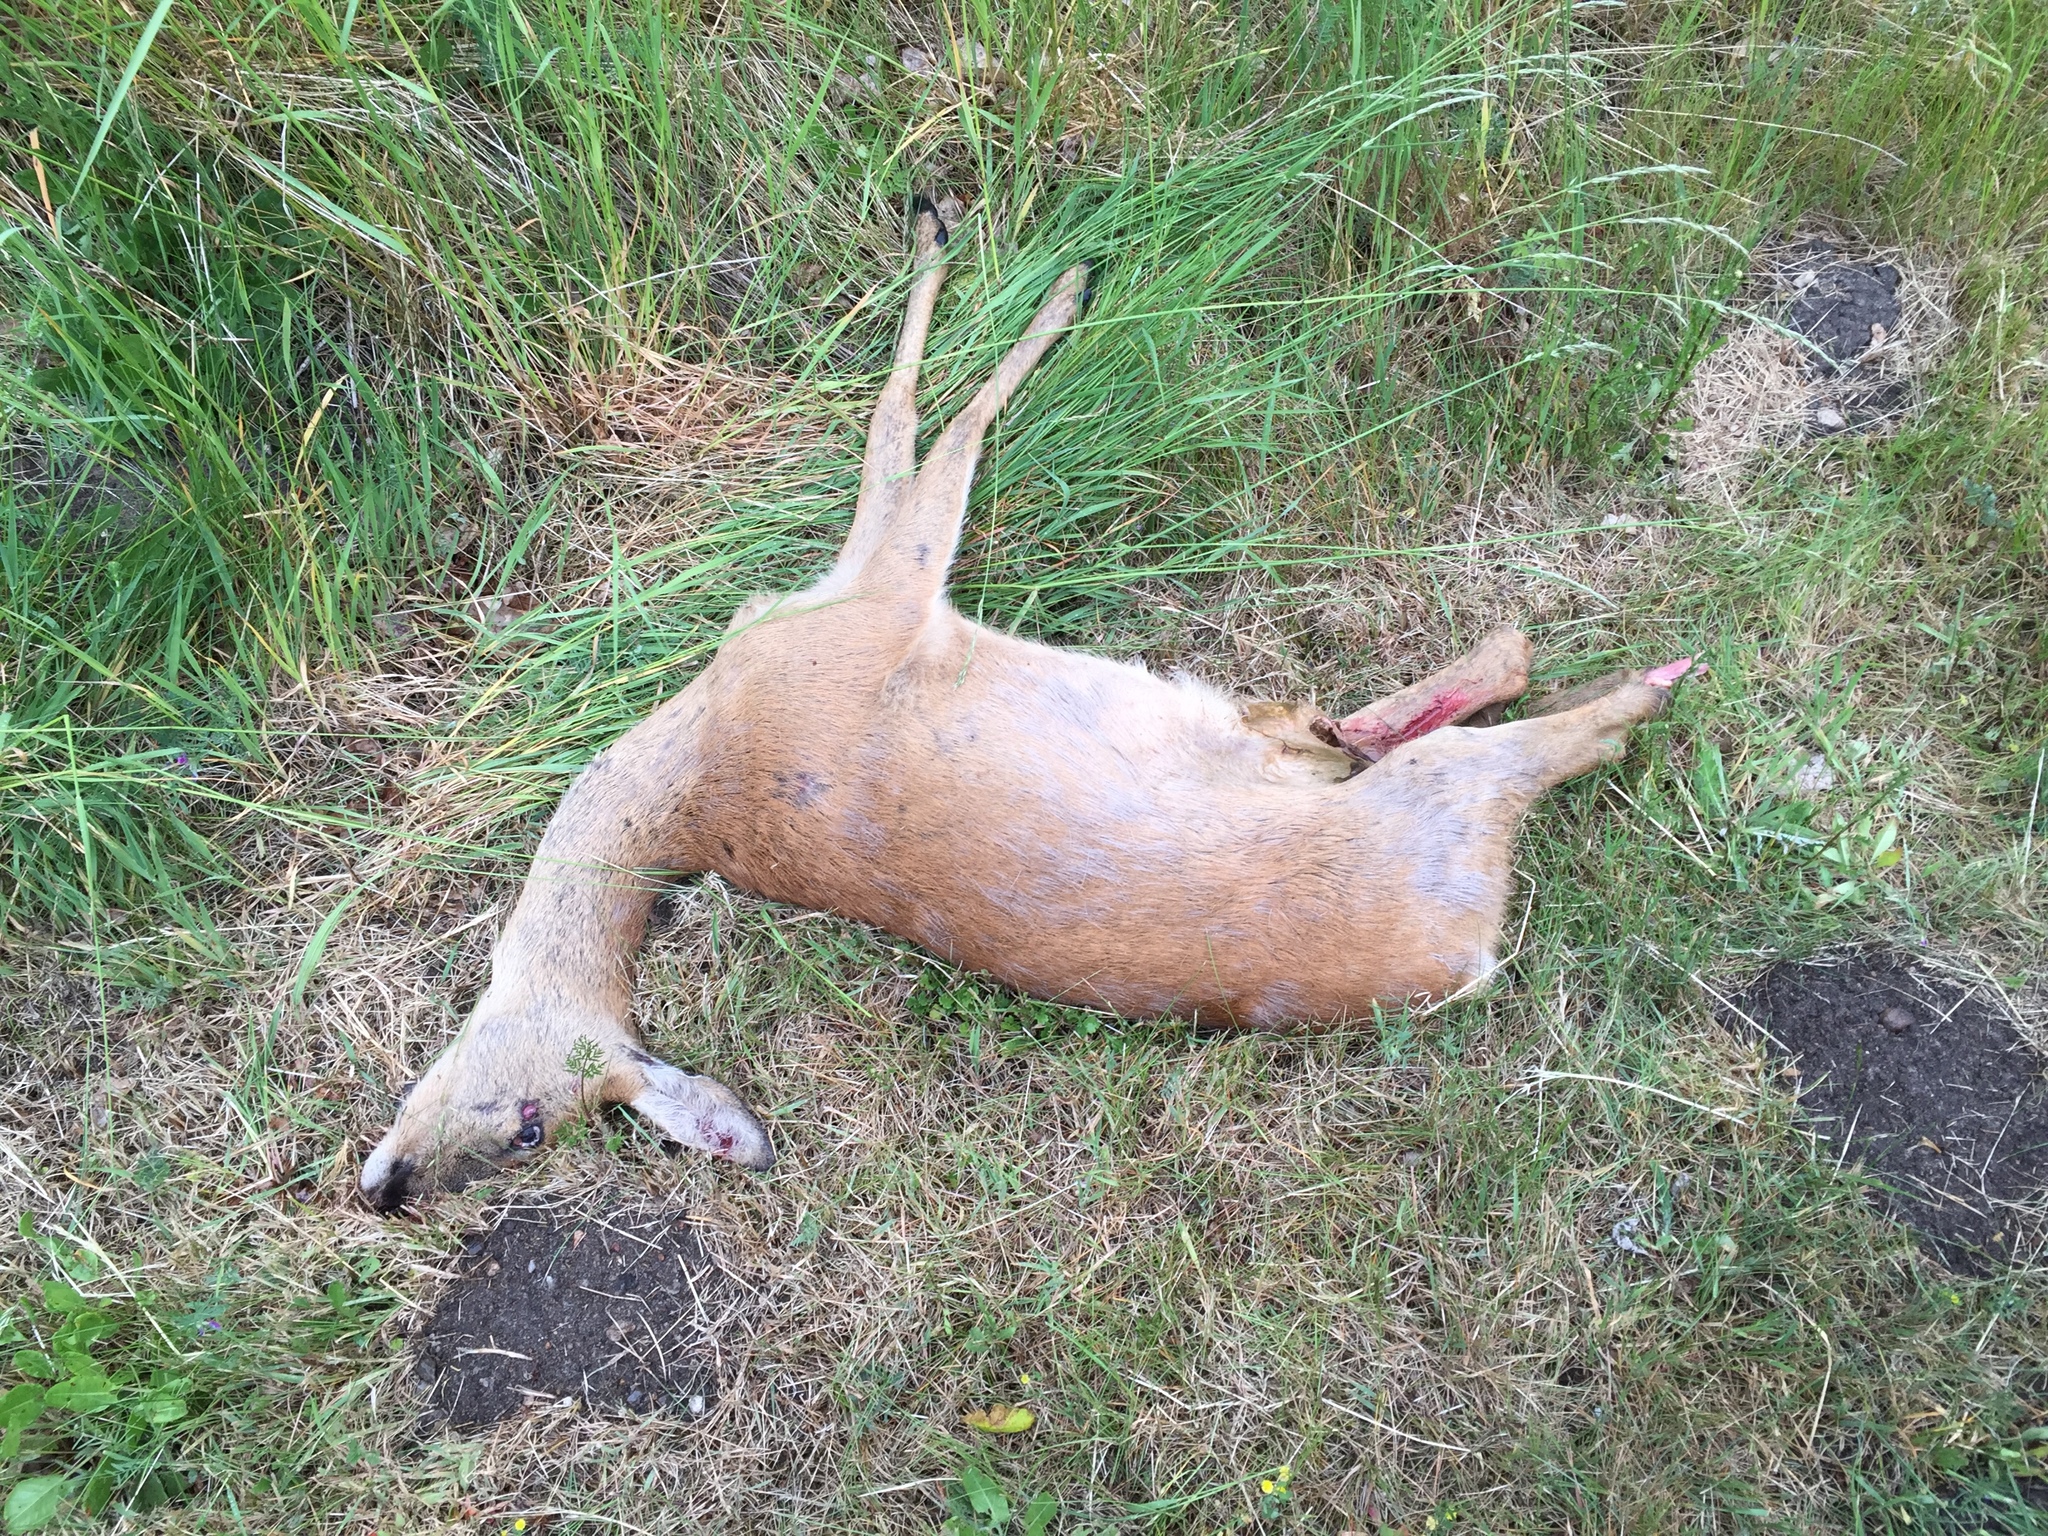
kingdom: Animalia
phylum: Chordata
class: Mammalia
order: Artiodactyla
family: Cervidae
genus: Capreolus
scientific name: Capreolus capreolus
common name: Western roe deer
